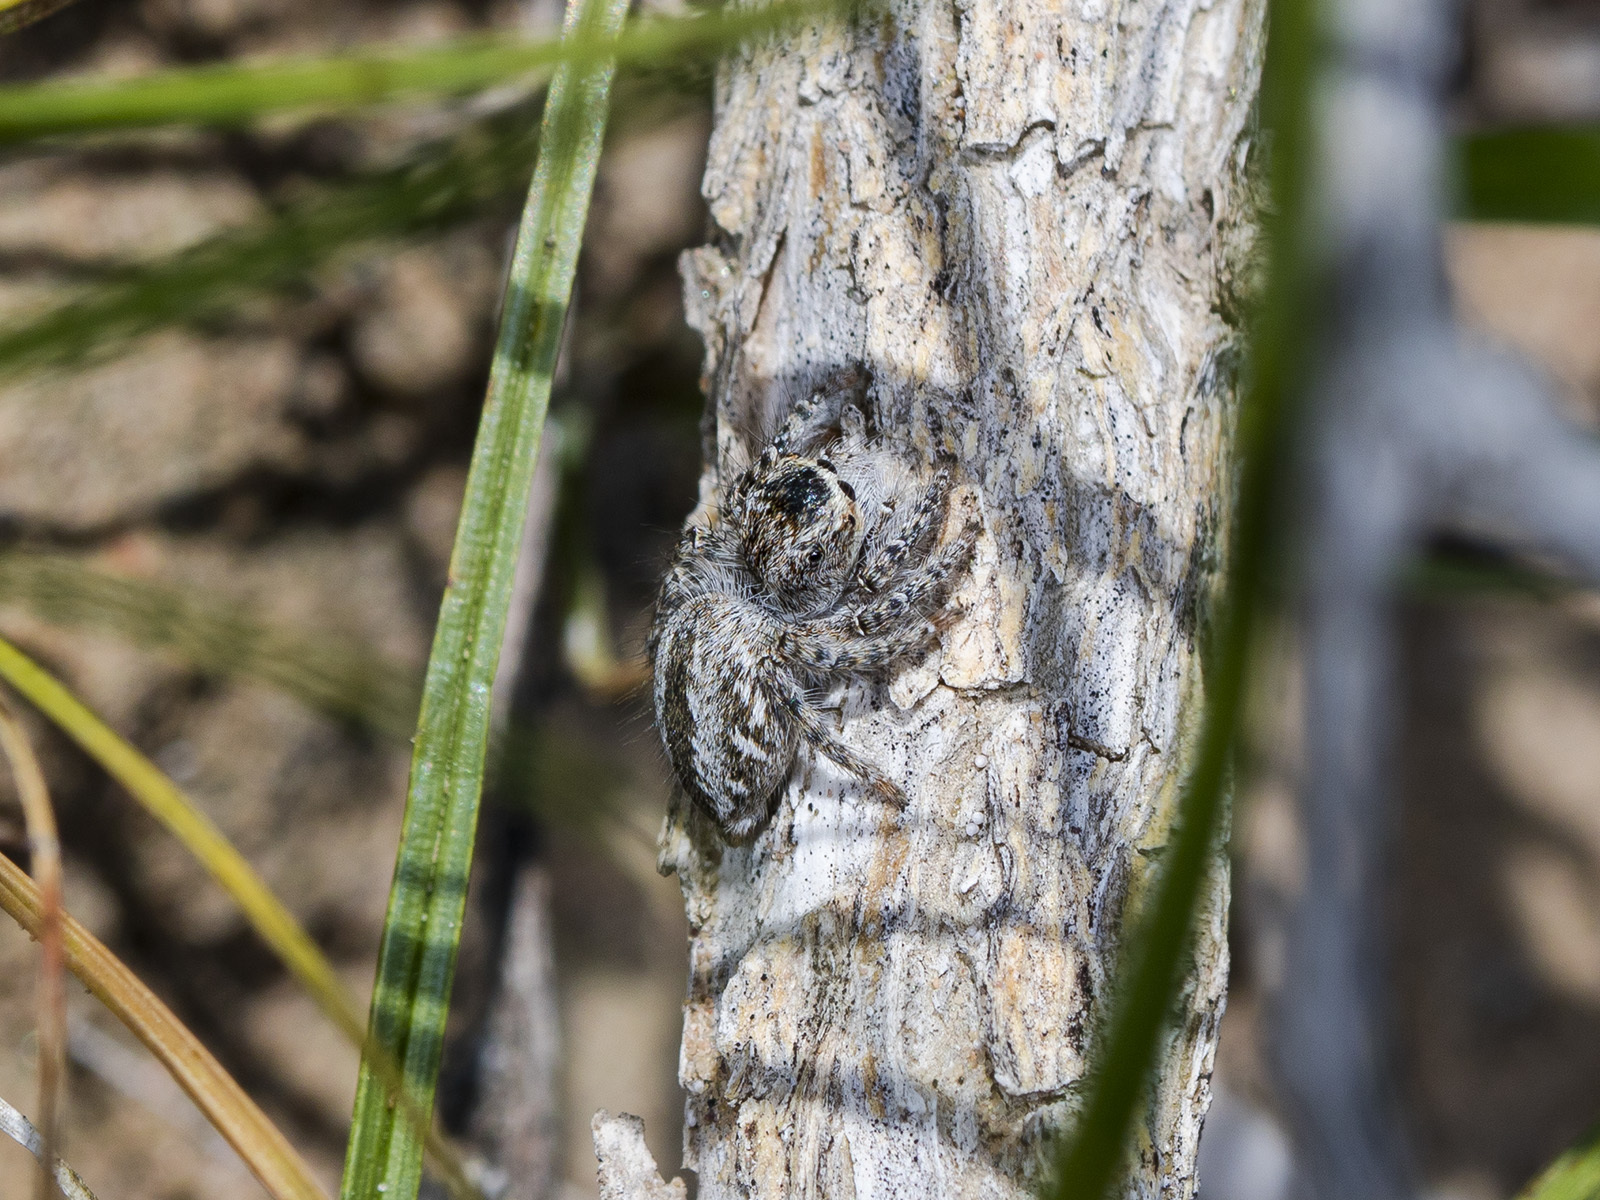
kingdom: Animalia
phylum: Arthropoda
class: Arachnida
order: Araneae
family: Salticidae
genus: Mogrus
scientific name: Mogrus larisae
